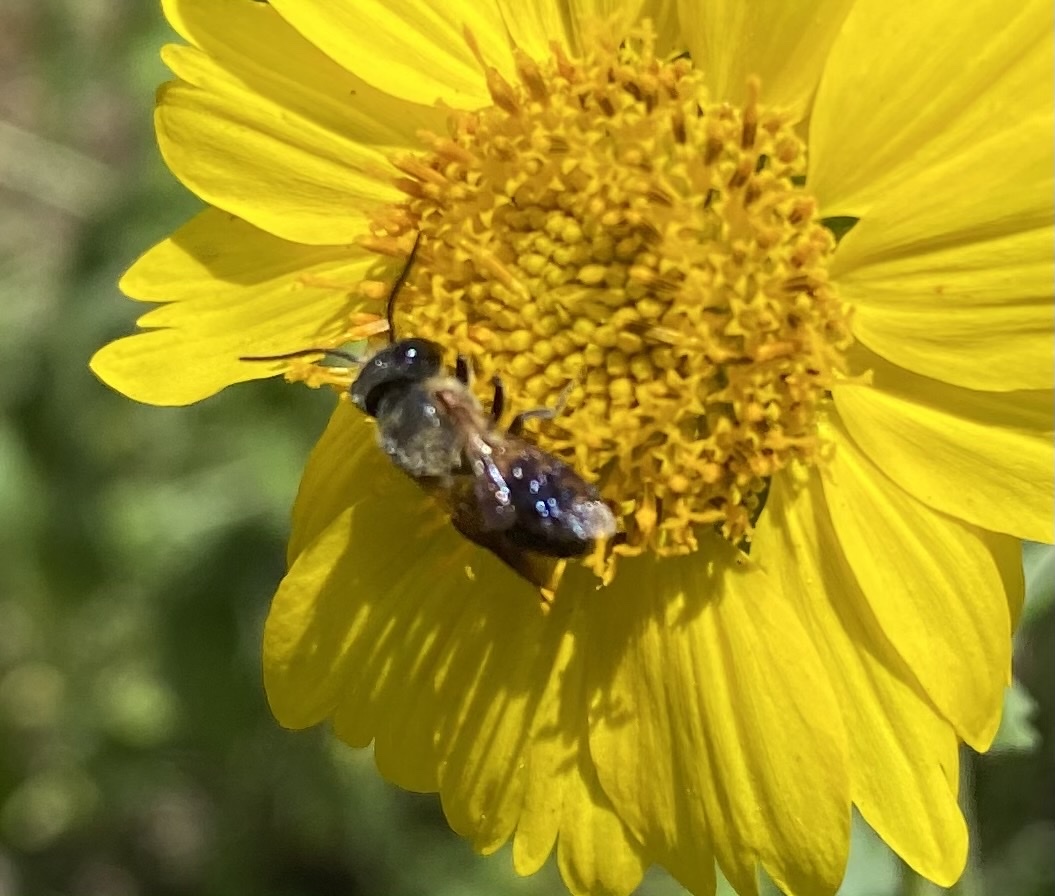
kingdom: Animalia
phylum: Arthropoda
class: Insecta
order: Hymenoptera
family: Megachilidae
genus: Megachile
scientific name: Megachile umbripennis
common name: Shadow-winged resin bee
